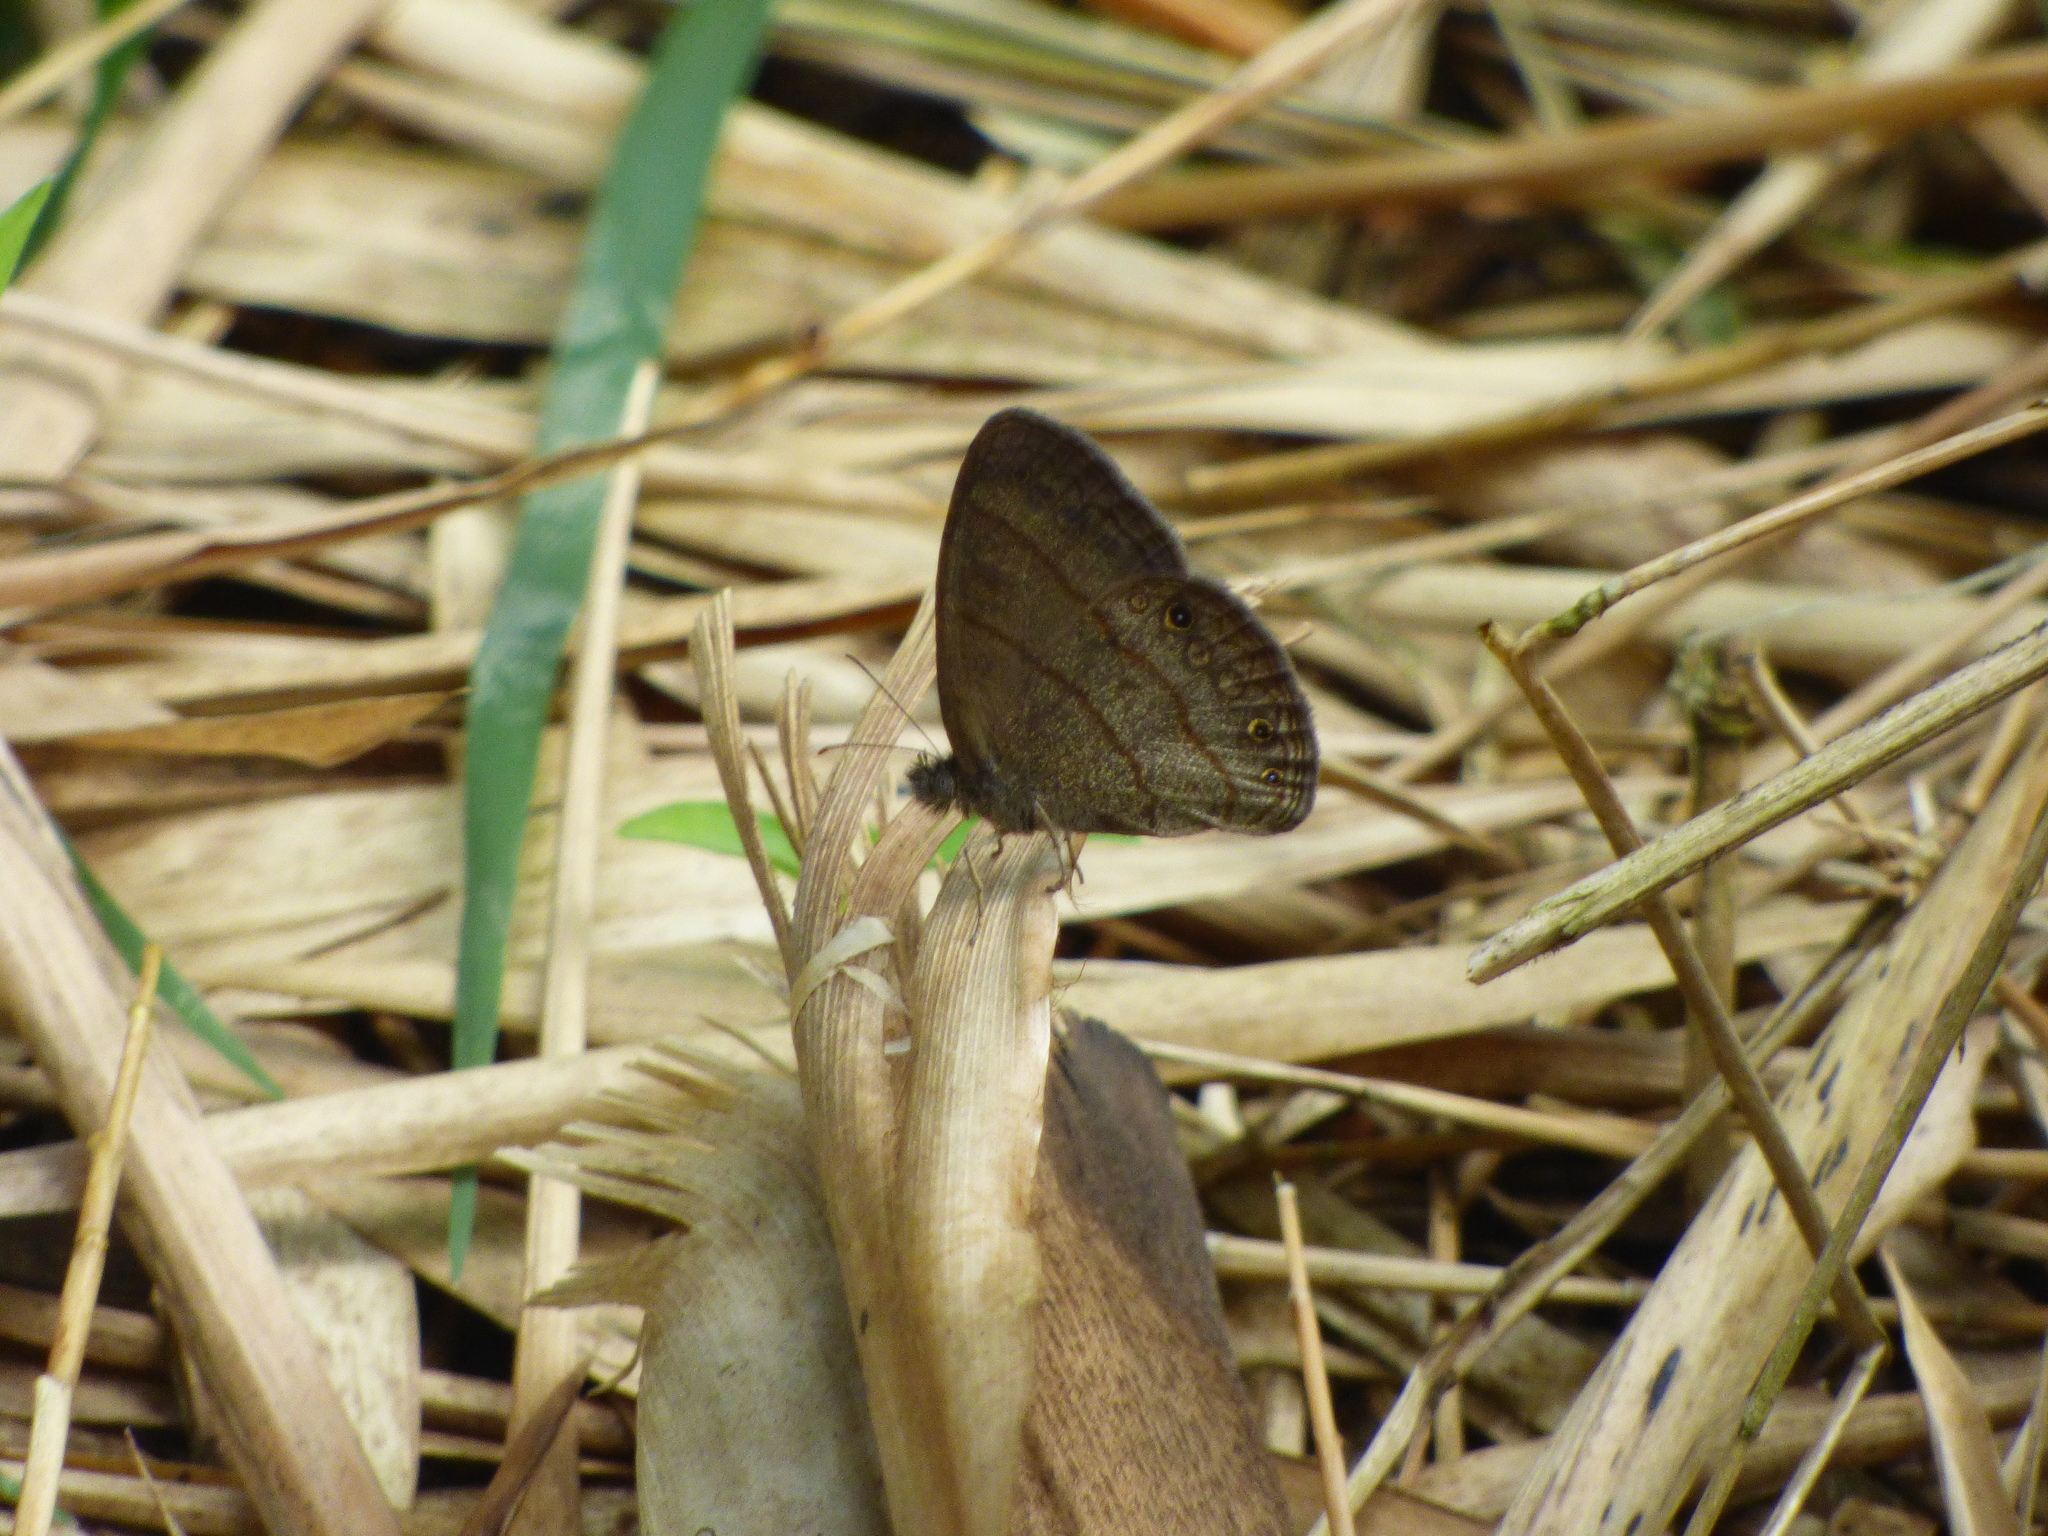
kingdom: Animalia
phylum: Arthropoda
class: Insecta
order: Lepidoptera
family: Nymphalidae
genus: Hermeuptychia
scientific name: Hermeuptychia hermes
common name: Hermes satyr
